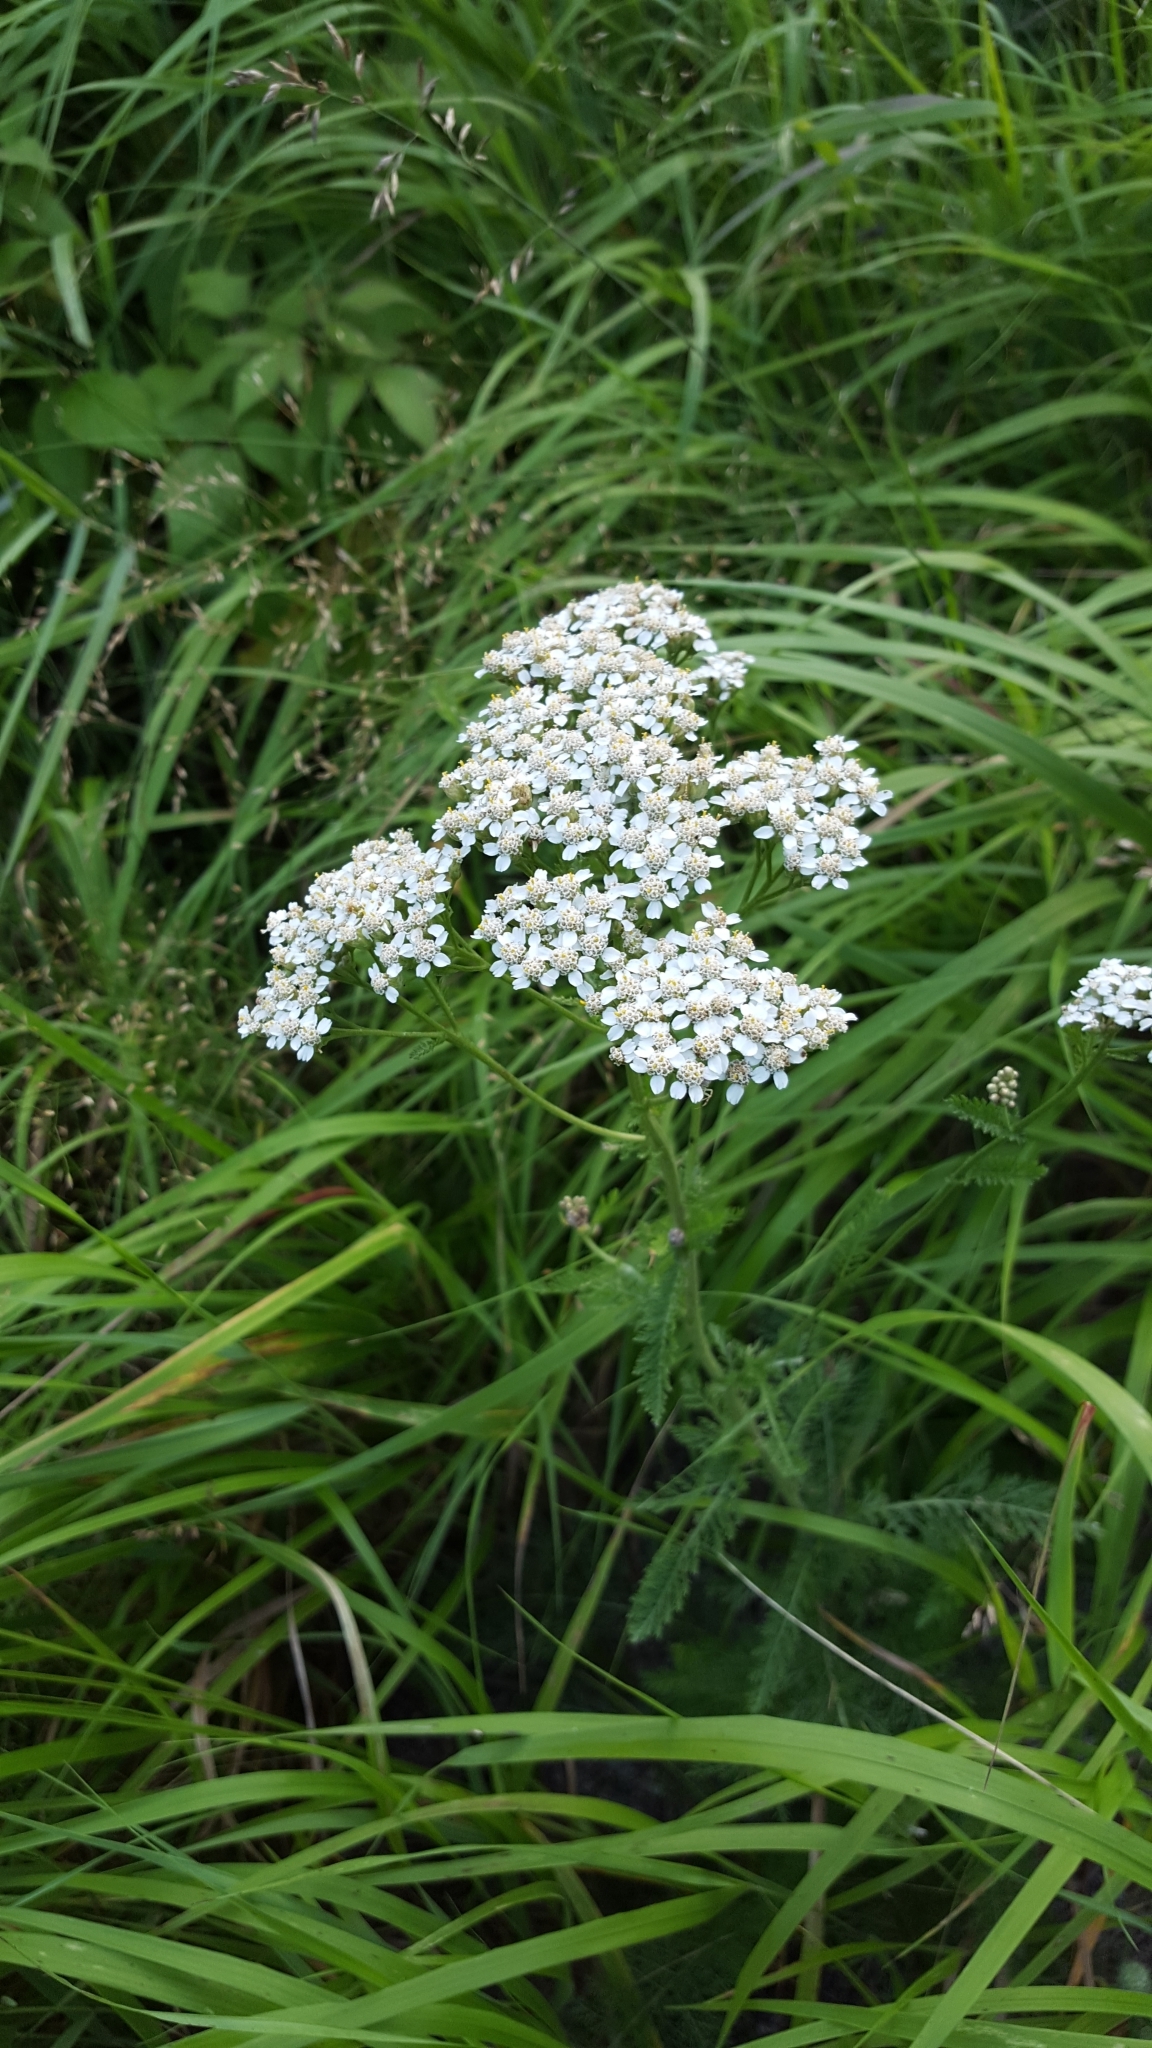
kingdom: Plantae
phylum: Tracheophyta
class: Magnoliopsida
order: Asterales
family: Asteraceae
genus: Achillea
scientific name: Achillea millefolium
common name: Yarrow
